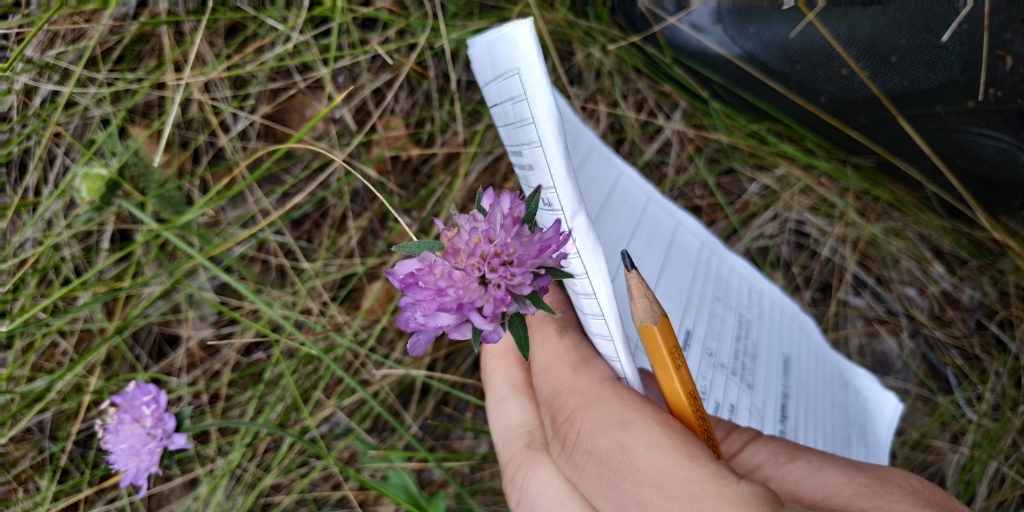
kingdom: Plantae
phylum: Tracheophyta
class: Magnoliopsida
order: Dipsacales
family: Caprifoliaceae
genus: Knautia
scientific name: Knautia arvensis
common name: Field scabiosa
